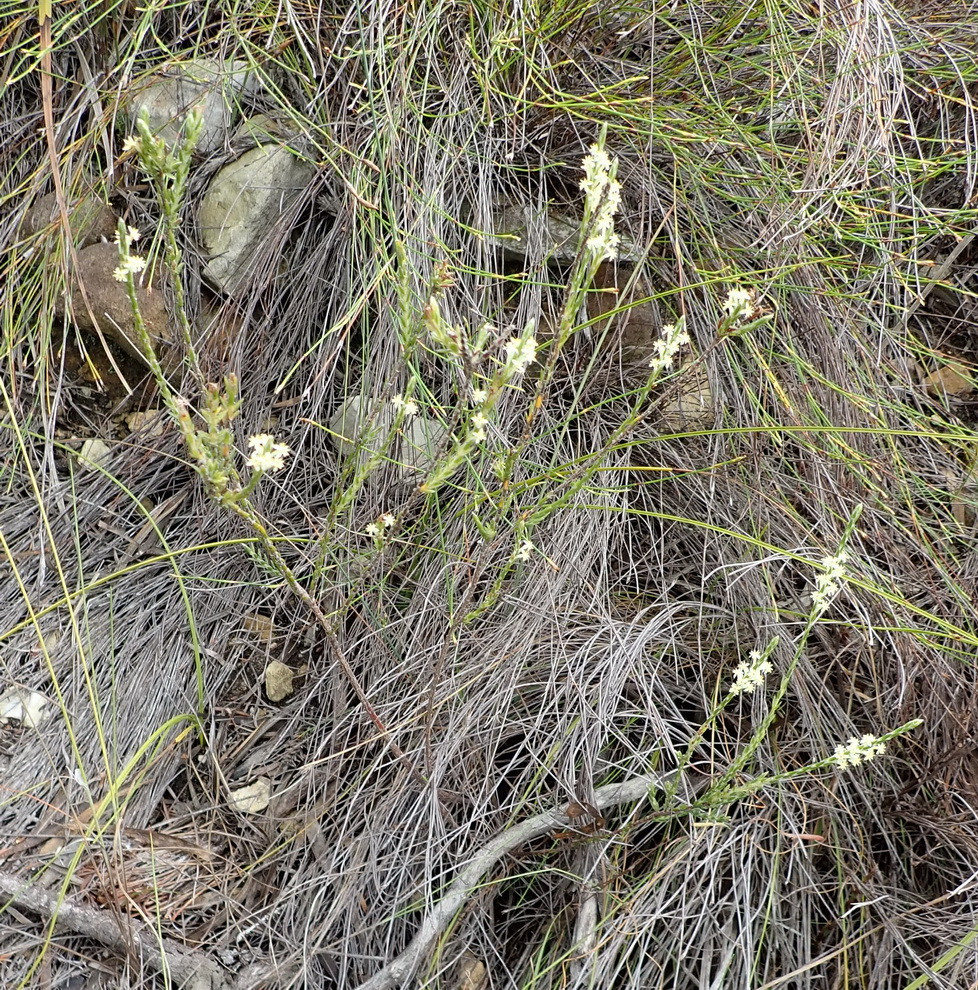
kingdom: Plantae
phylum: Tracheophyta
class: Magnoliopsida
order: Malvales
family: Thymelaeaceae
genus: Struthiola
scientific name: Struthiola ciliata
